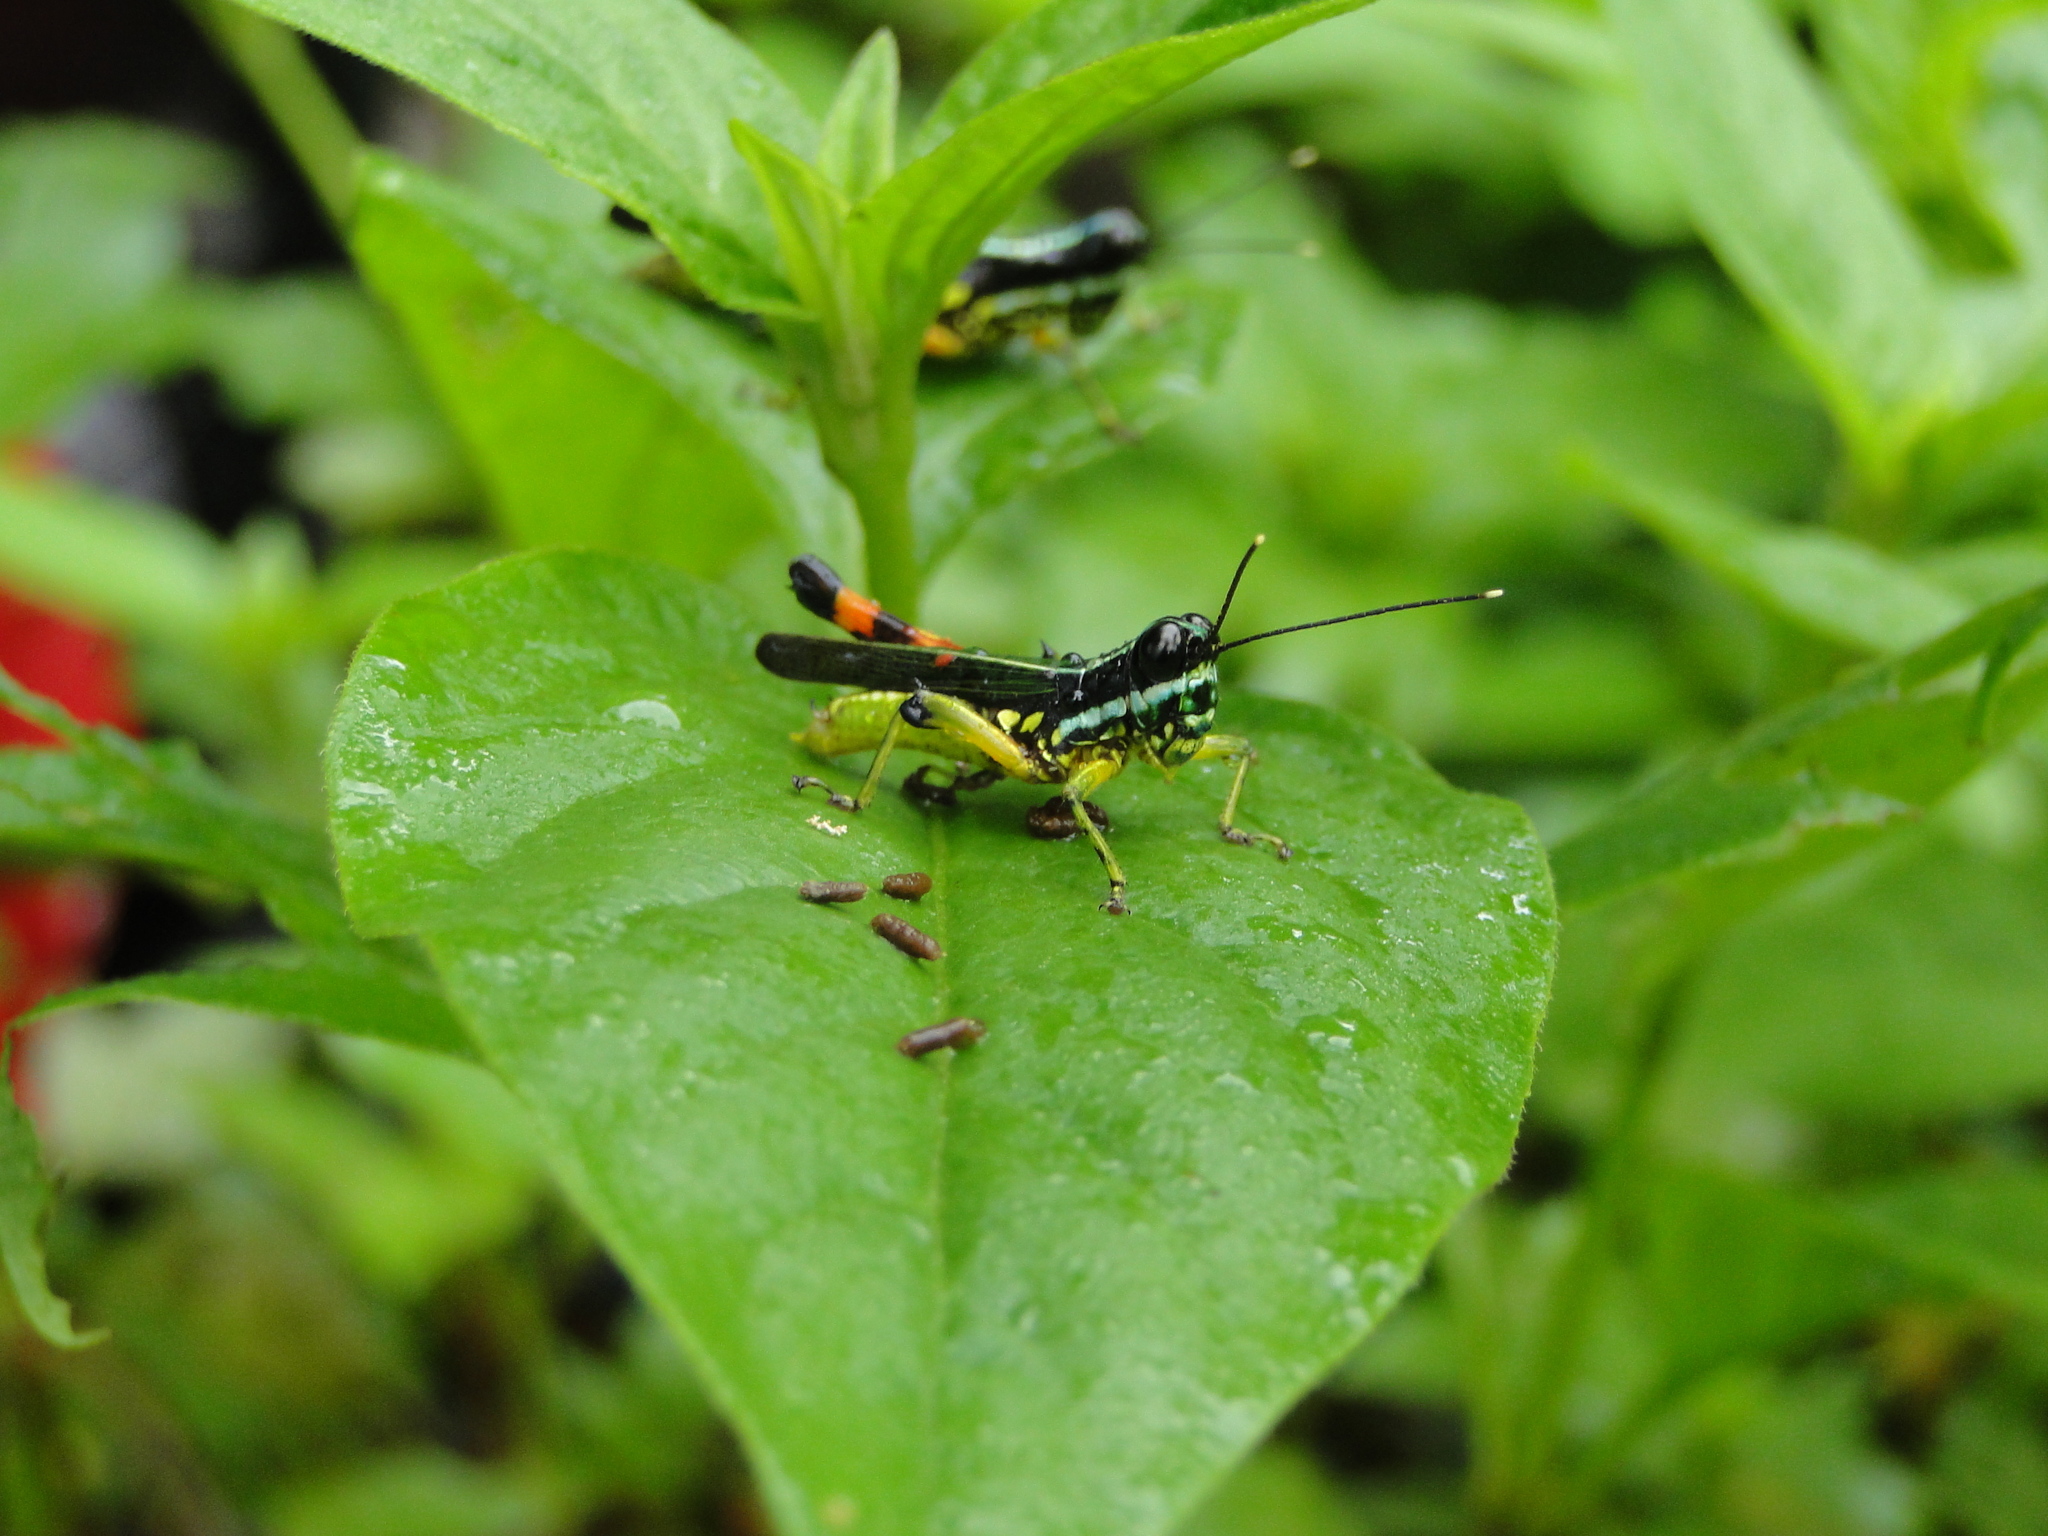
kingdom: Animalia
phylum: Arthropoda
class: Insecta
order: Orthoptera
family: Acrididae
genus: Tetrataenia
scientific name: Tetrataenia surinama
